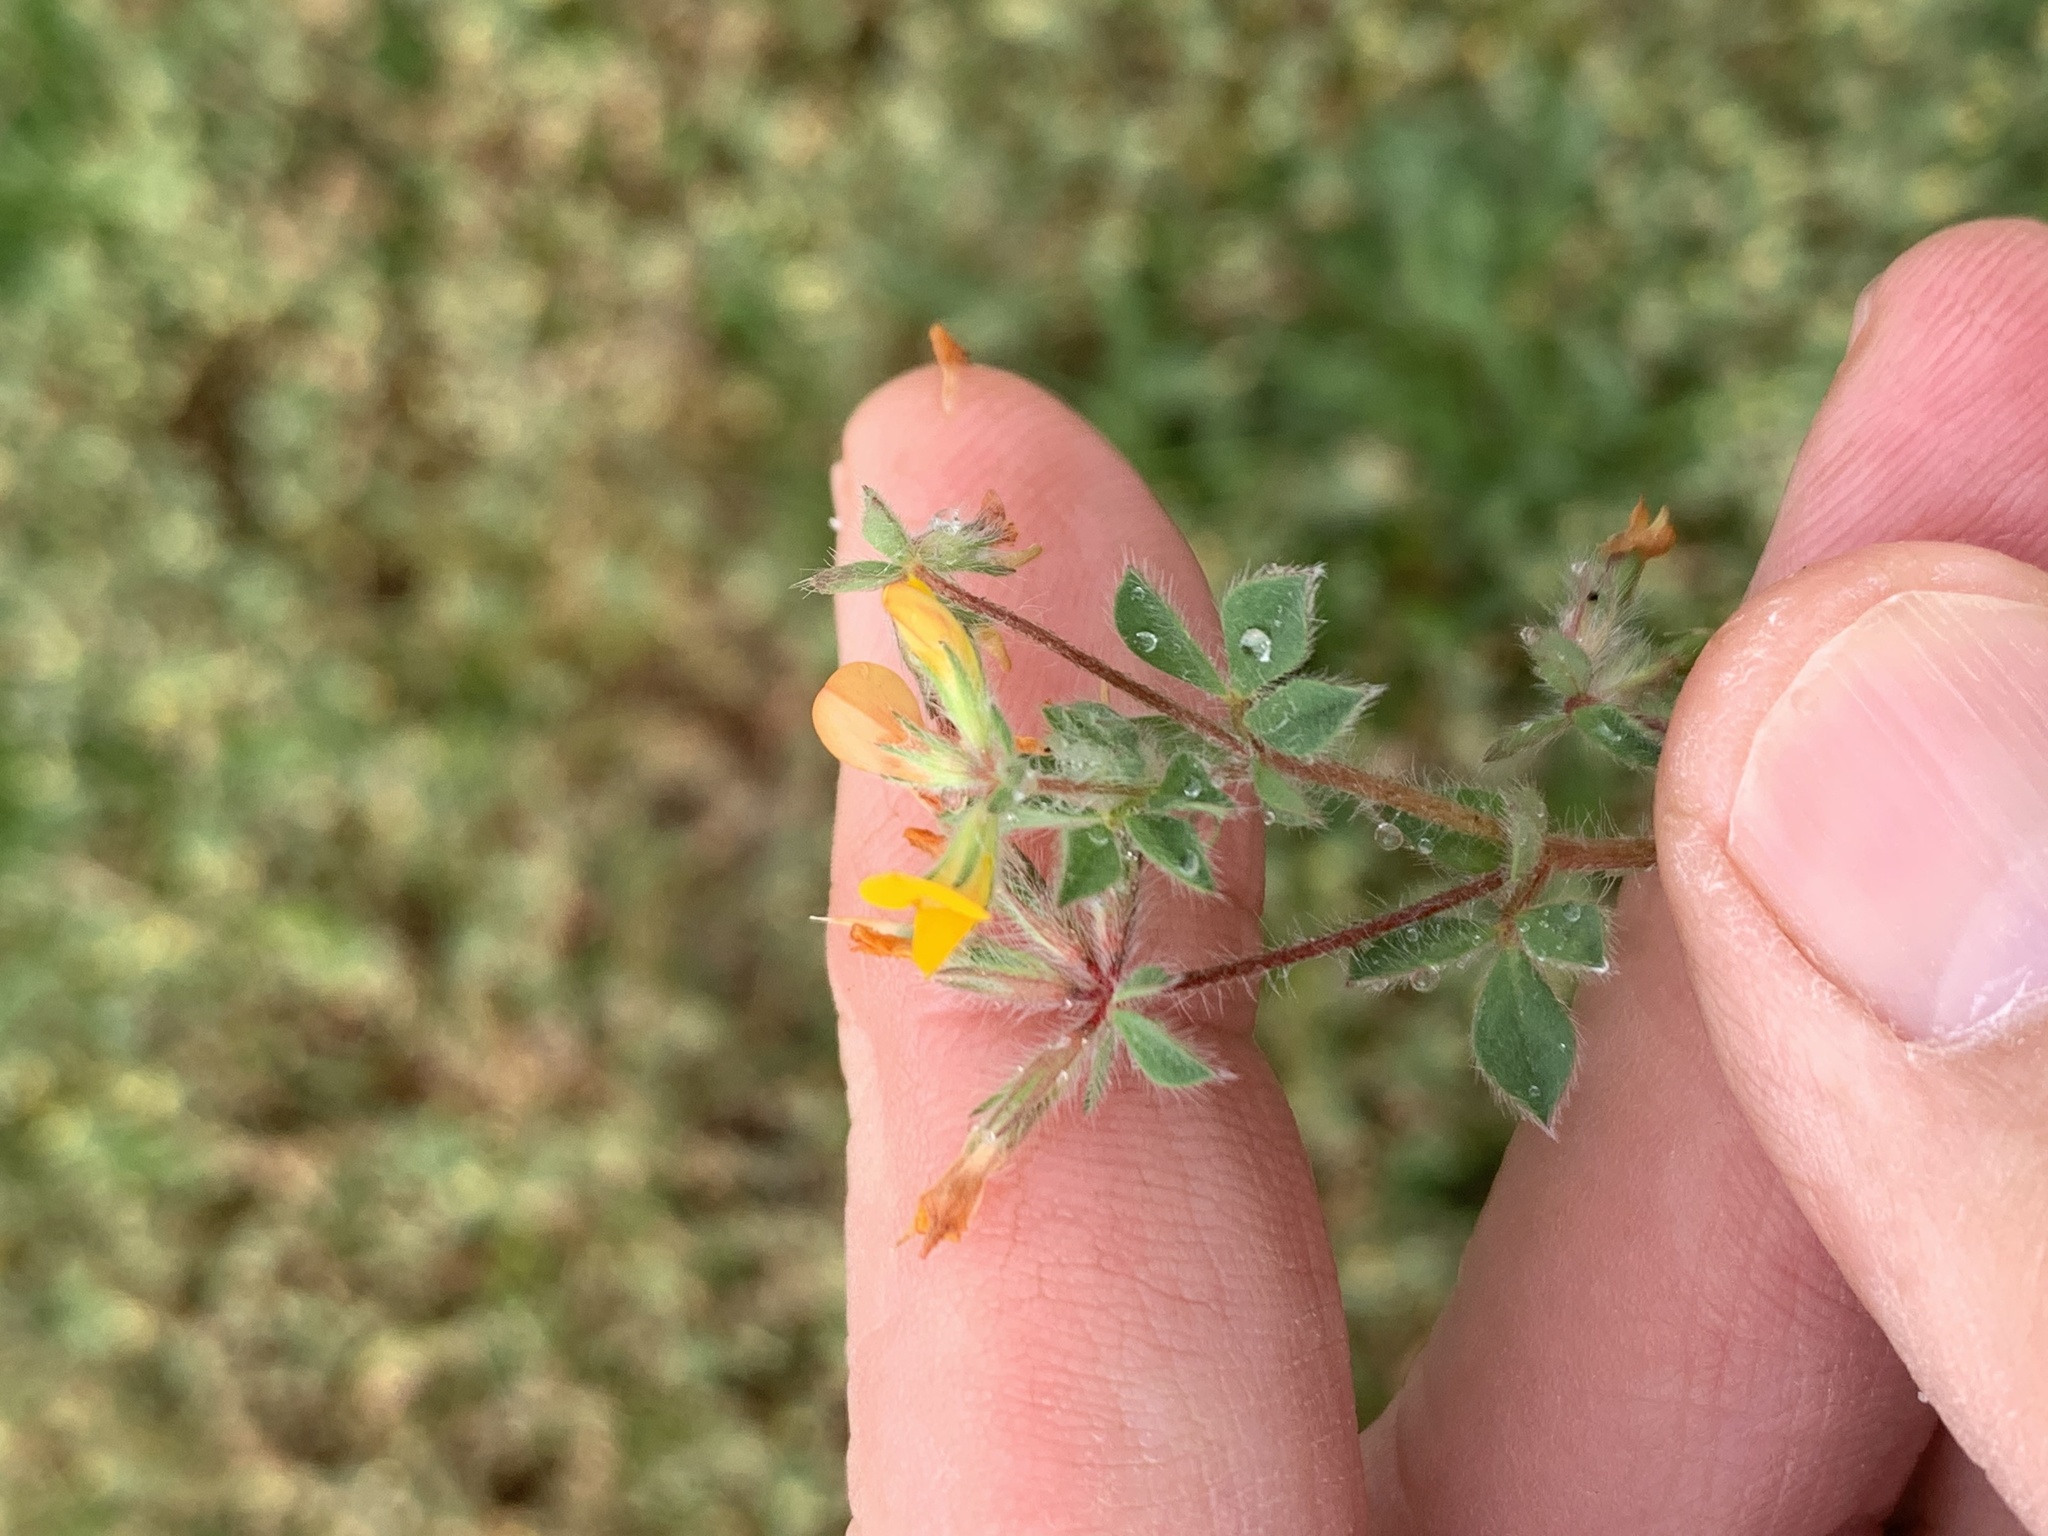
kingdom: Plantae
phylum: Tracheophyta
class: Magnoliopsida
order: Fabales
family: Fabaceae
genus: Lotus
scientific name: Lotus subbiflorus
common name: Hairy bird's-foot trefoil
